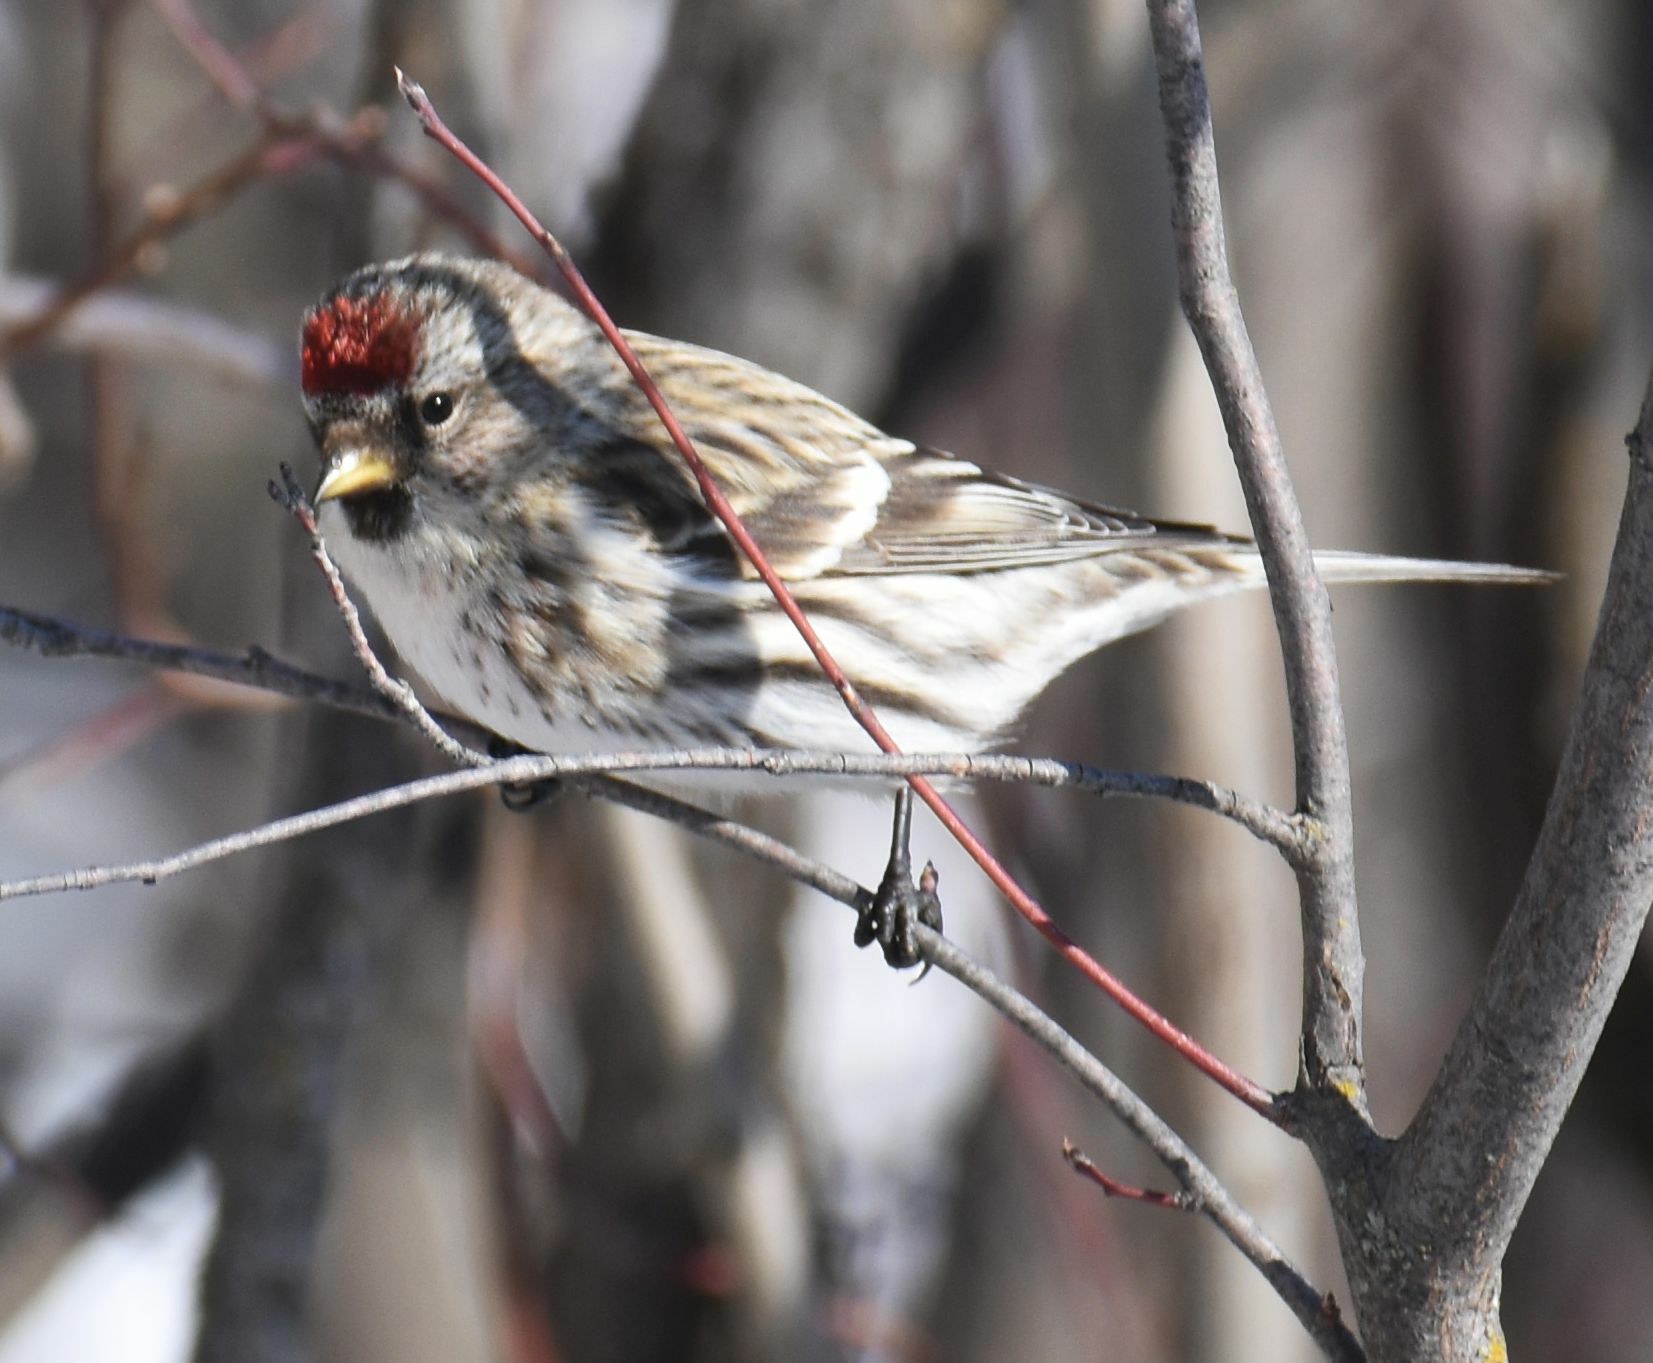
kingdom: Animalia
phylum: Chordata
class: Aves
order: Passeriformes
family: Fringillidae
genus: Acanthis
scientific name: Acanthis flammea
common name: Common redpoll
